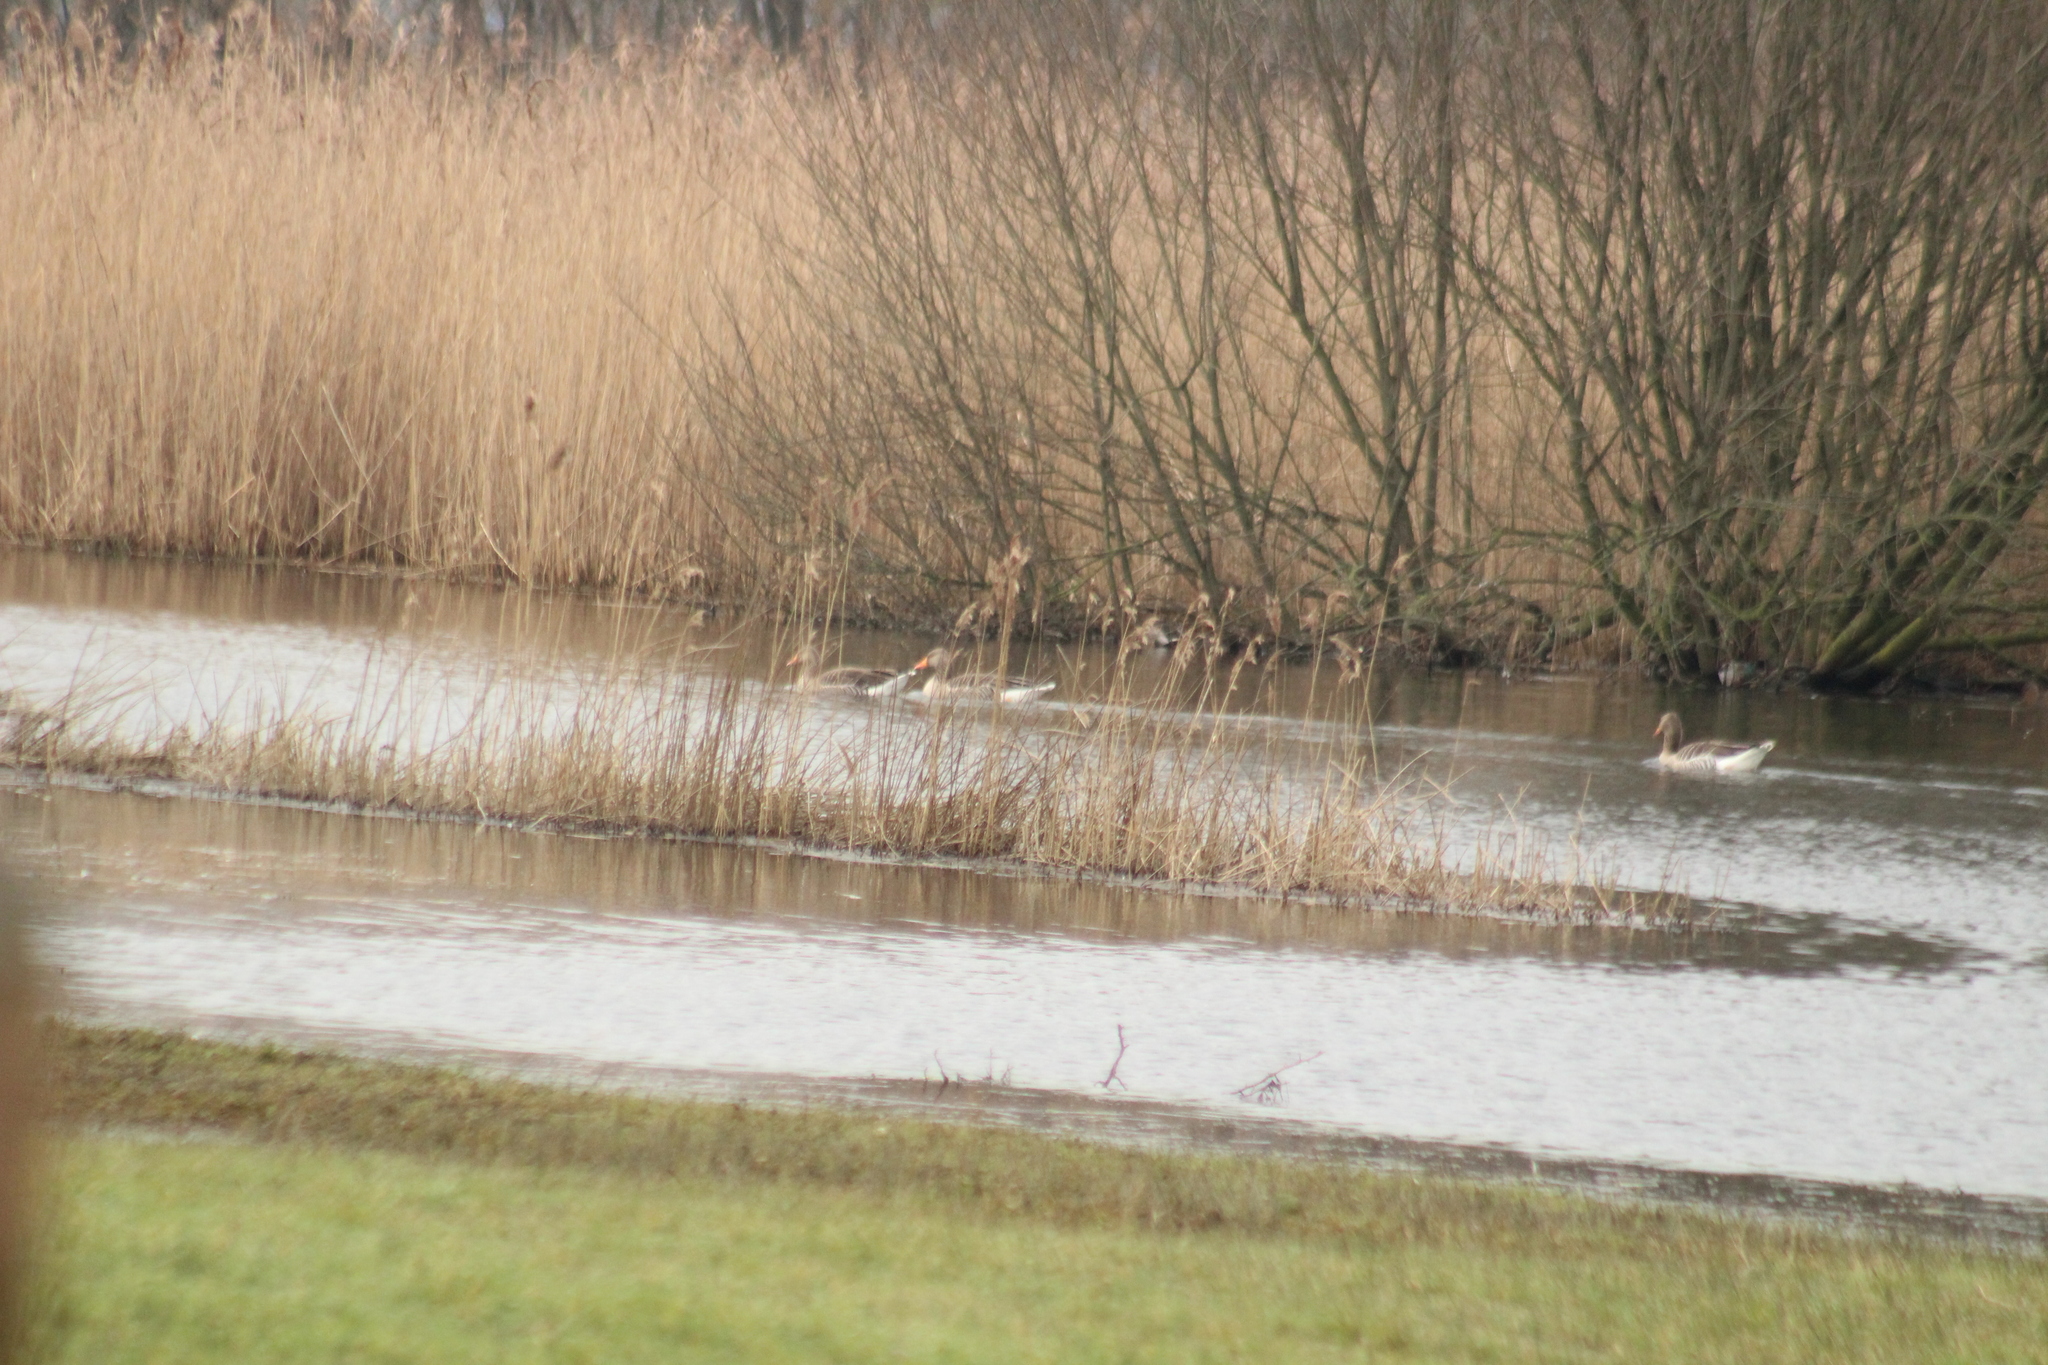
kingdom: Animalia
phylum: Chordata
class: Aves
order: Anseriformes
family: Anatidae
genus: Anser
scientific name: Anser anser
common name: Greylag goose
